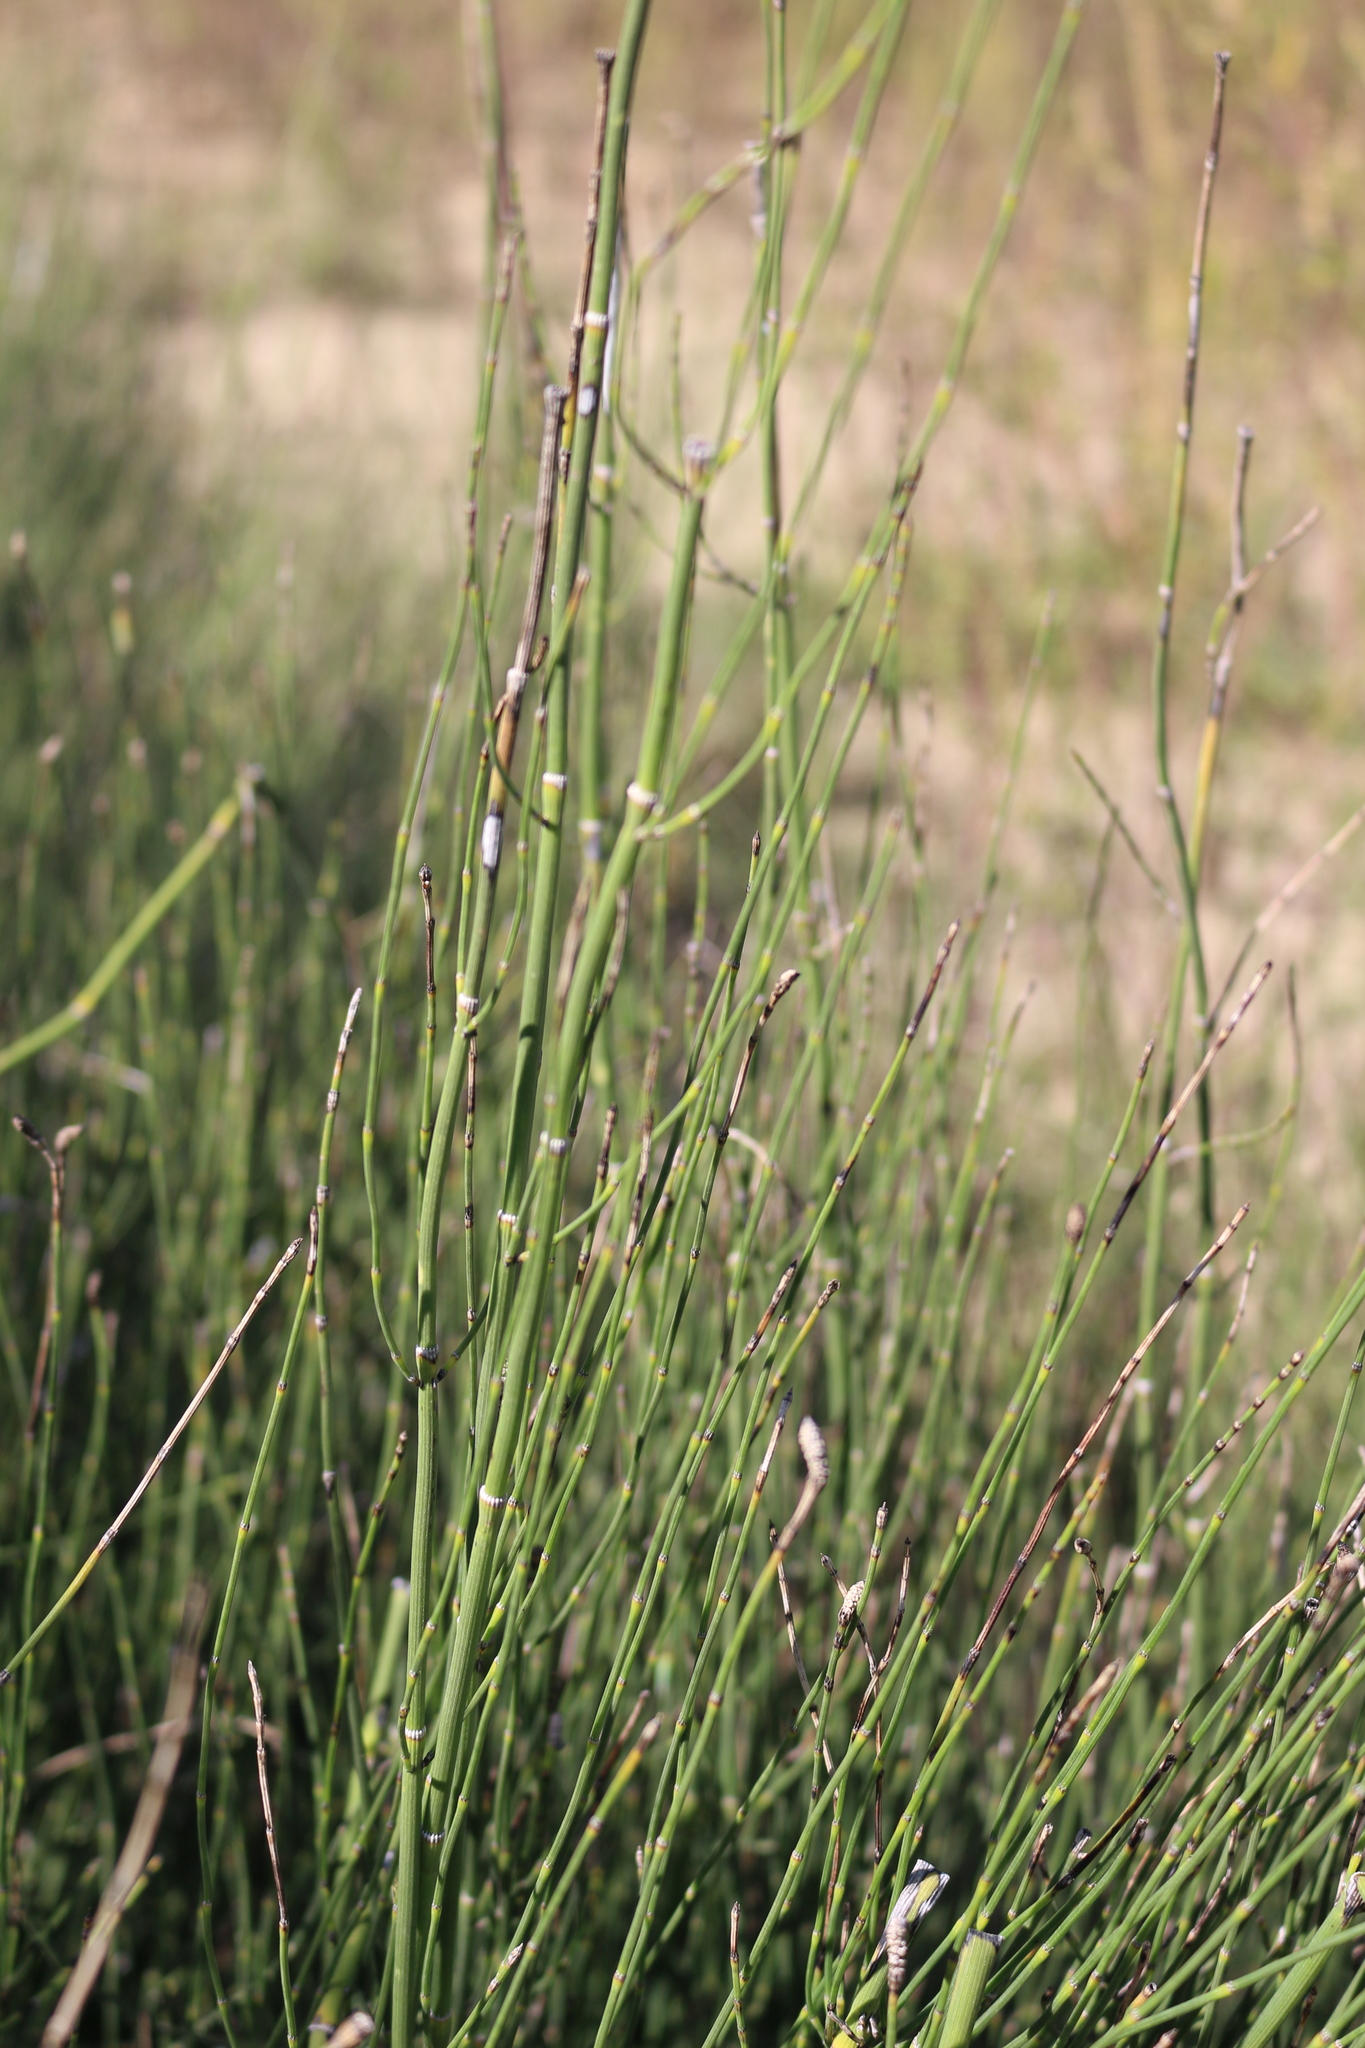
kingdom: Plantae
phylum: Tracheophyta
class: Polypodiopsida
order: Equisetales
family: Equisetaceae
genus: Equisetum
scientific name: Equisetum ramosissimum
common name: Branched horsetail
